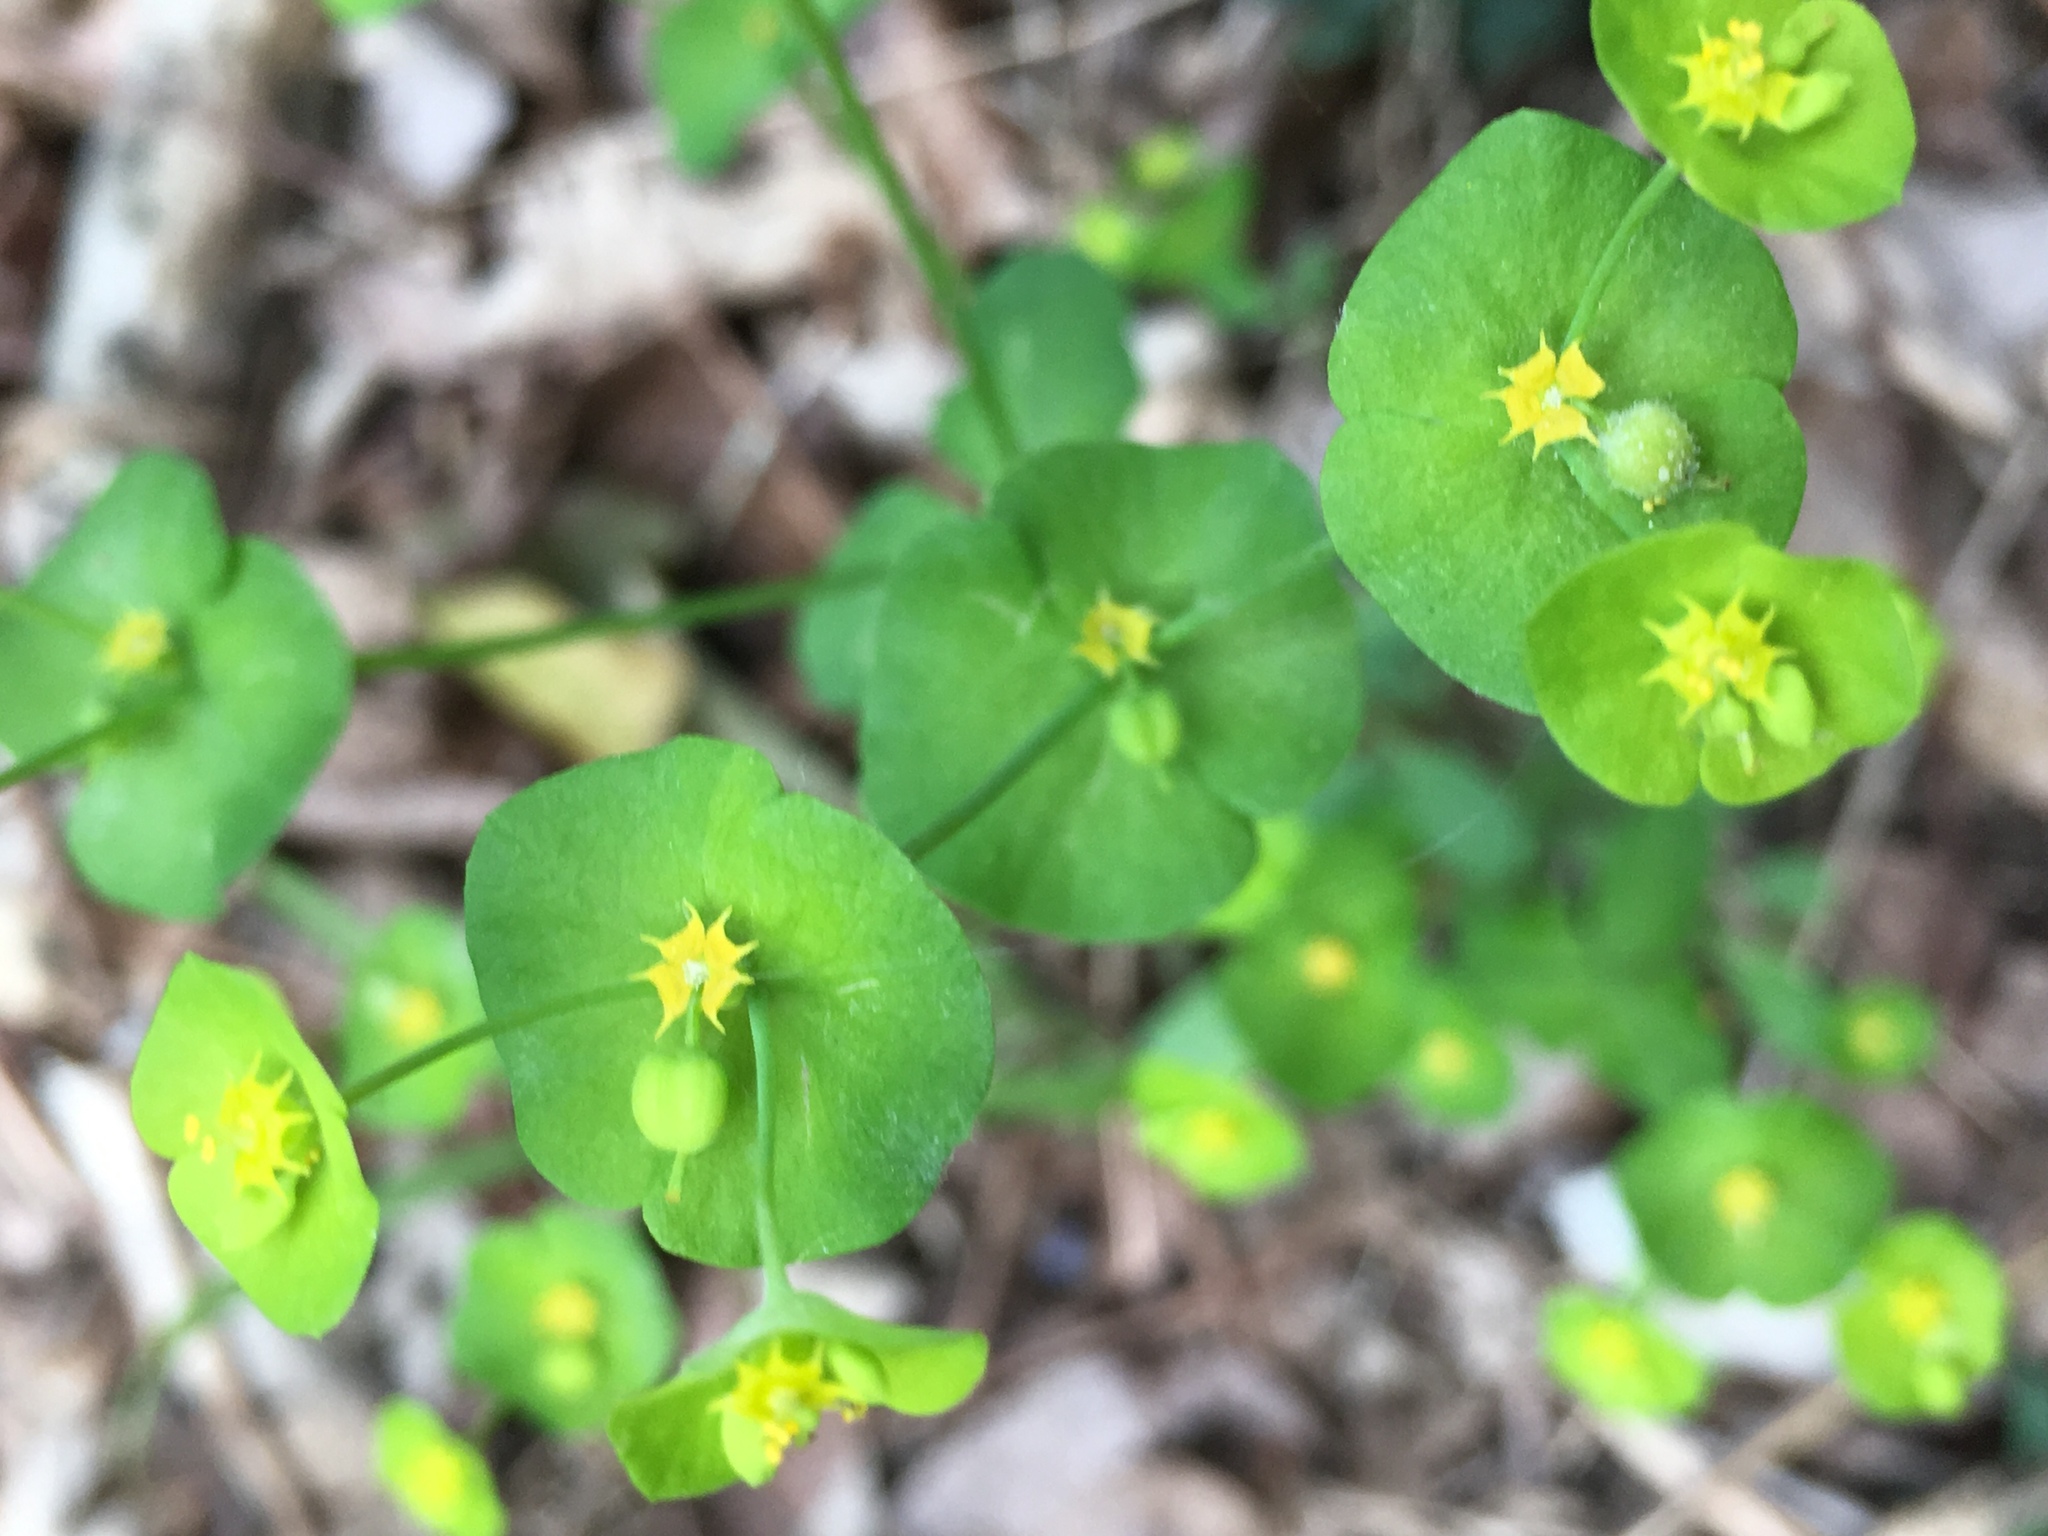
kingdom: Plantae
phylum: Tracheophyta
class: Magnoliopsida
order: Malpighiales
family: Euphorbiaceae
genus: Euphorbia
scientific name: Euphorbia roemeriana
